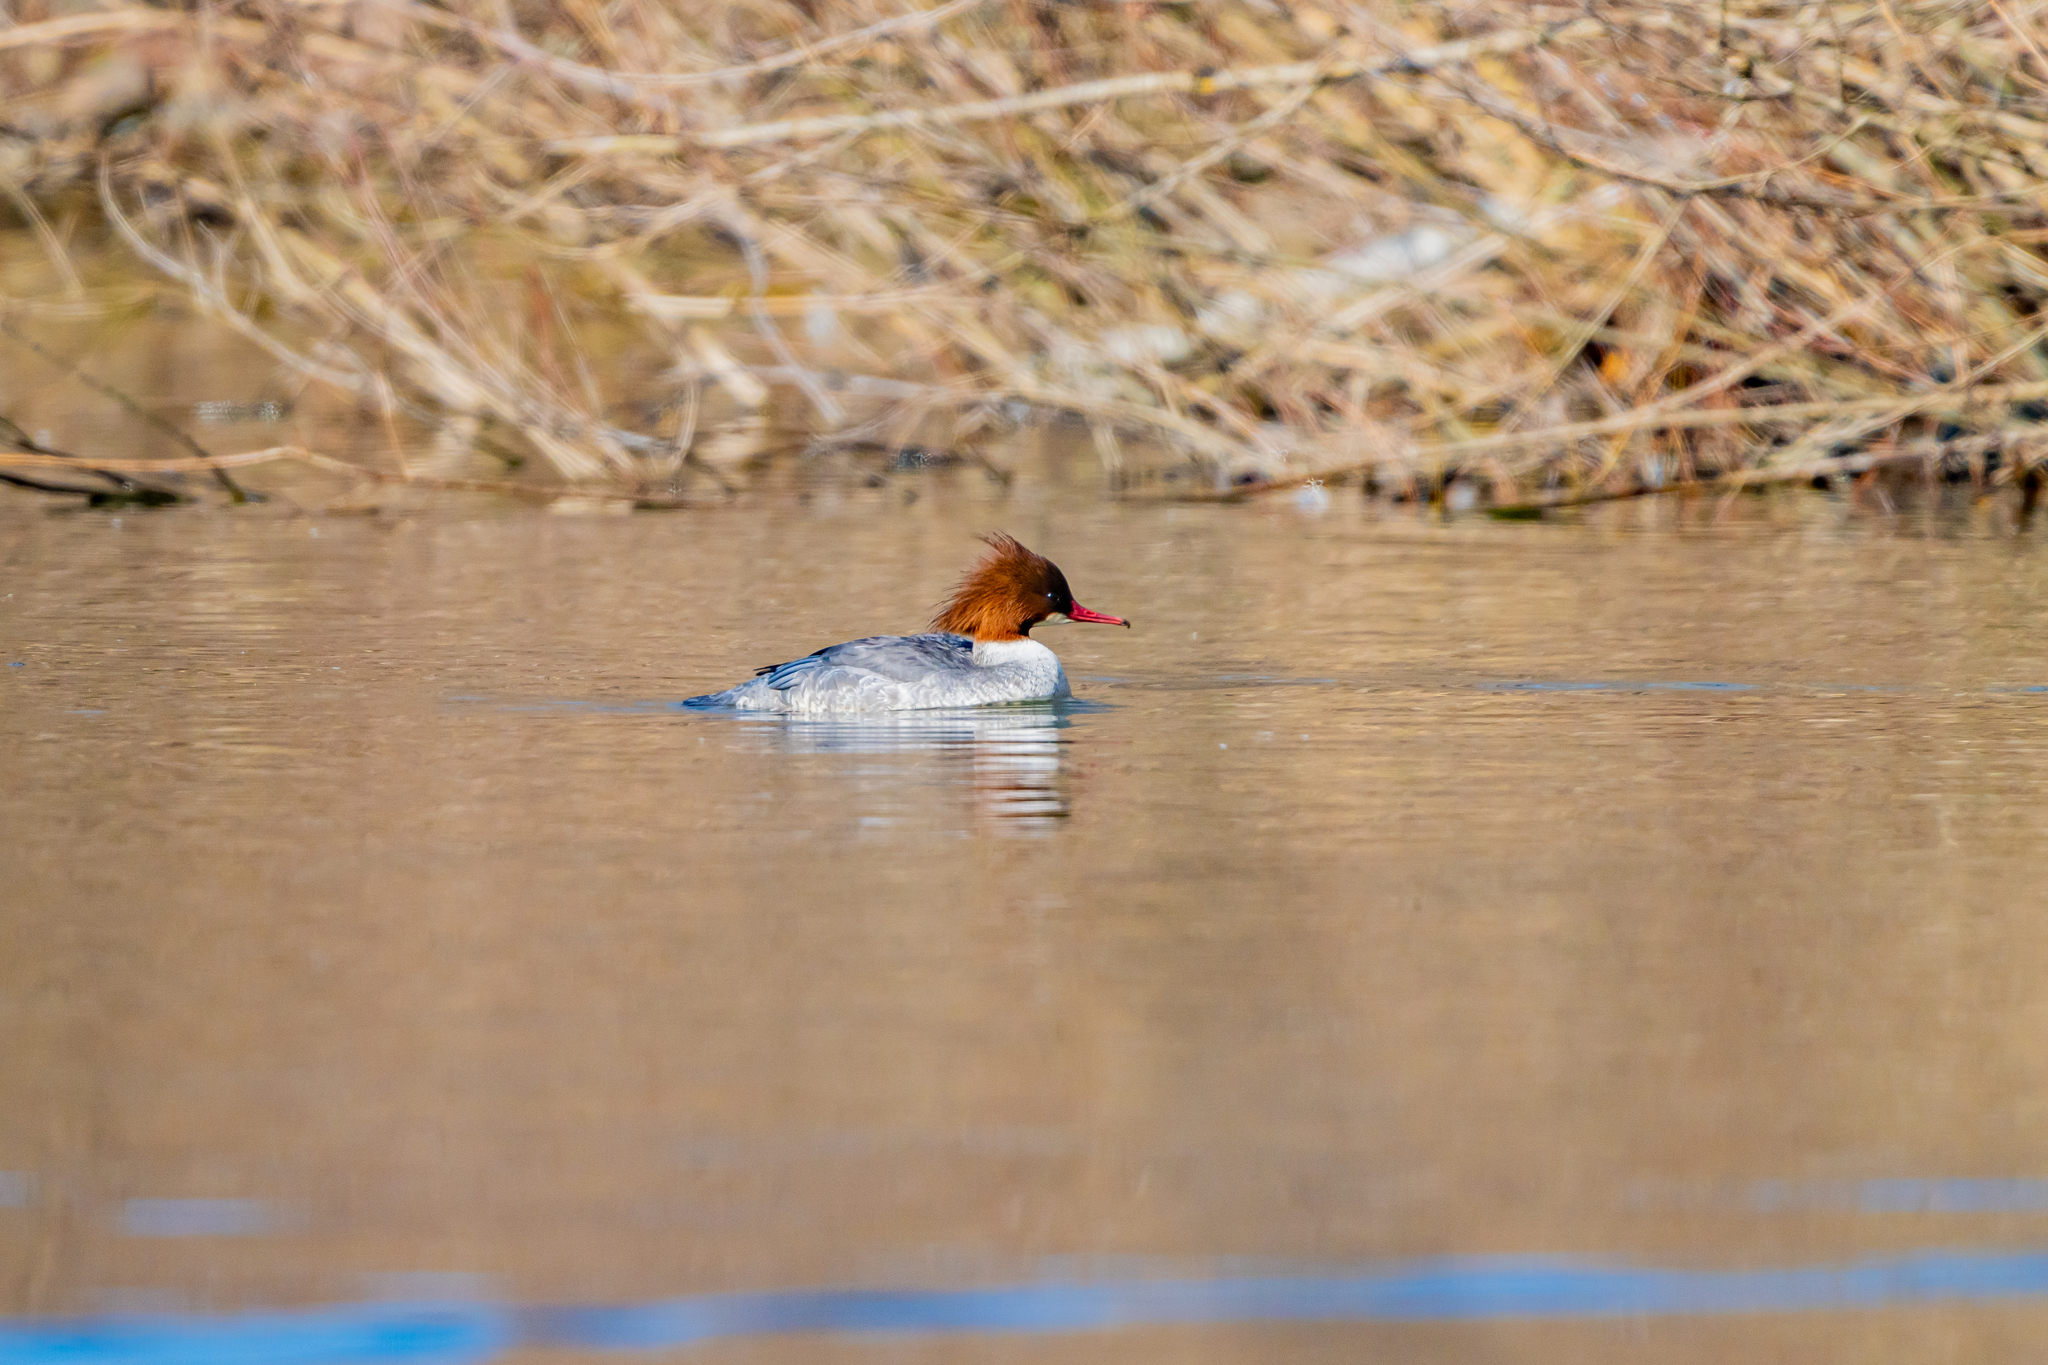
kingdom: Animalia
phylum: Chordata
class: Aves
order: Anseriformes
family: Anatidae
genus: Mergus
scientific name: Mergus merganser
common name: Common merganser
